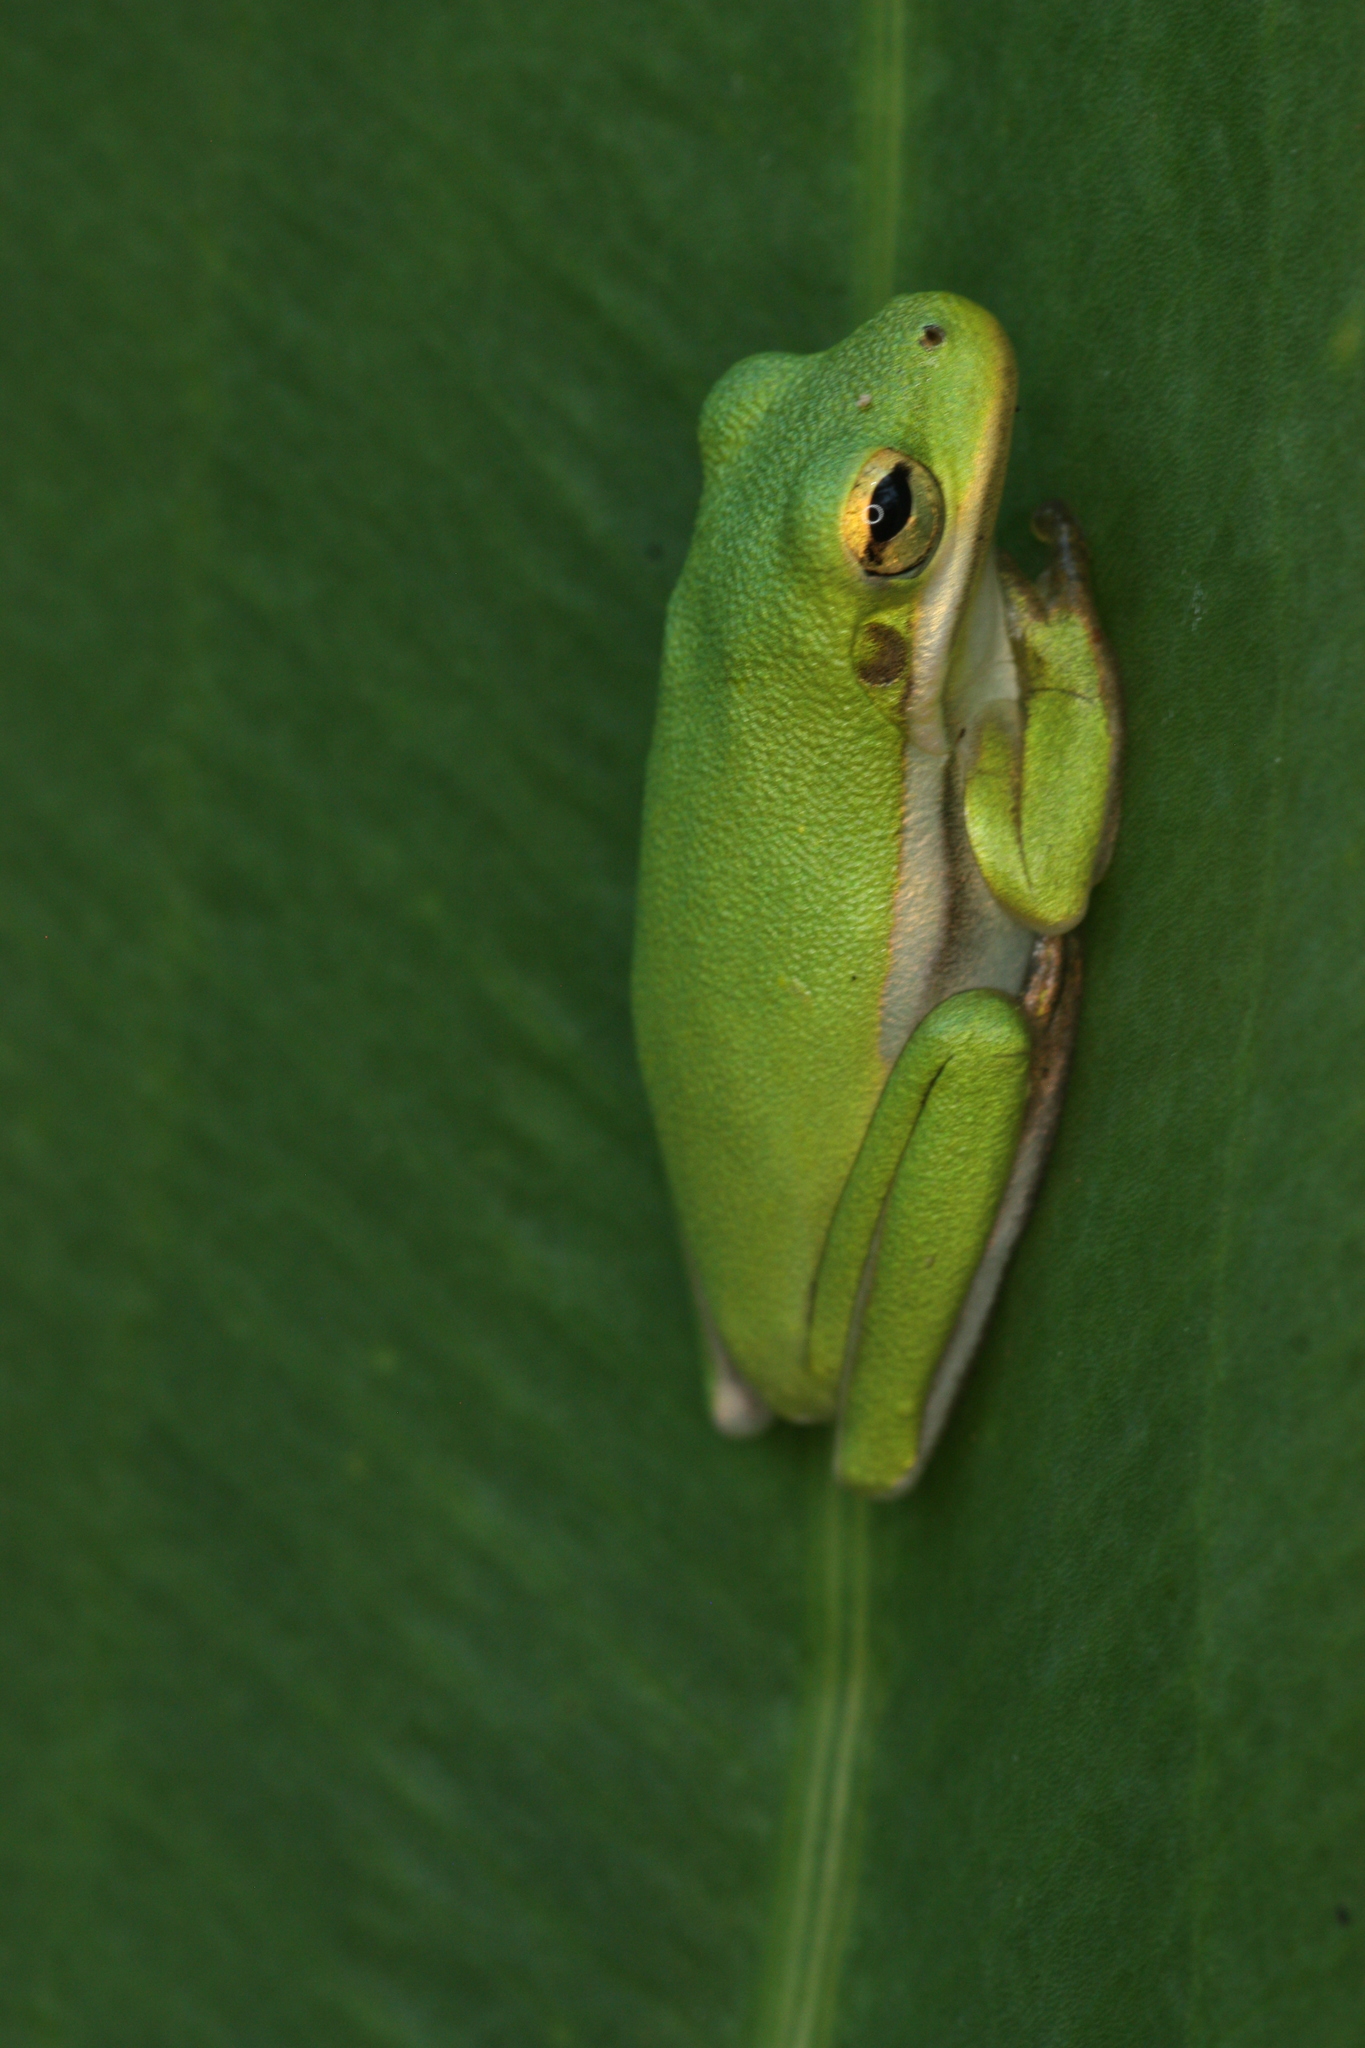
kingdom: Animalia
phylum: Chordata
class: Amphibia
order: Anura
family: Hylidae
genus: Dryophytes
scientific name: Dryophytes cinereus
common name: Green treefrog
